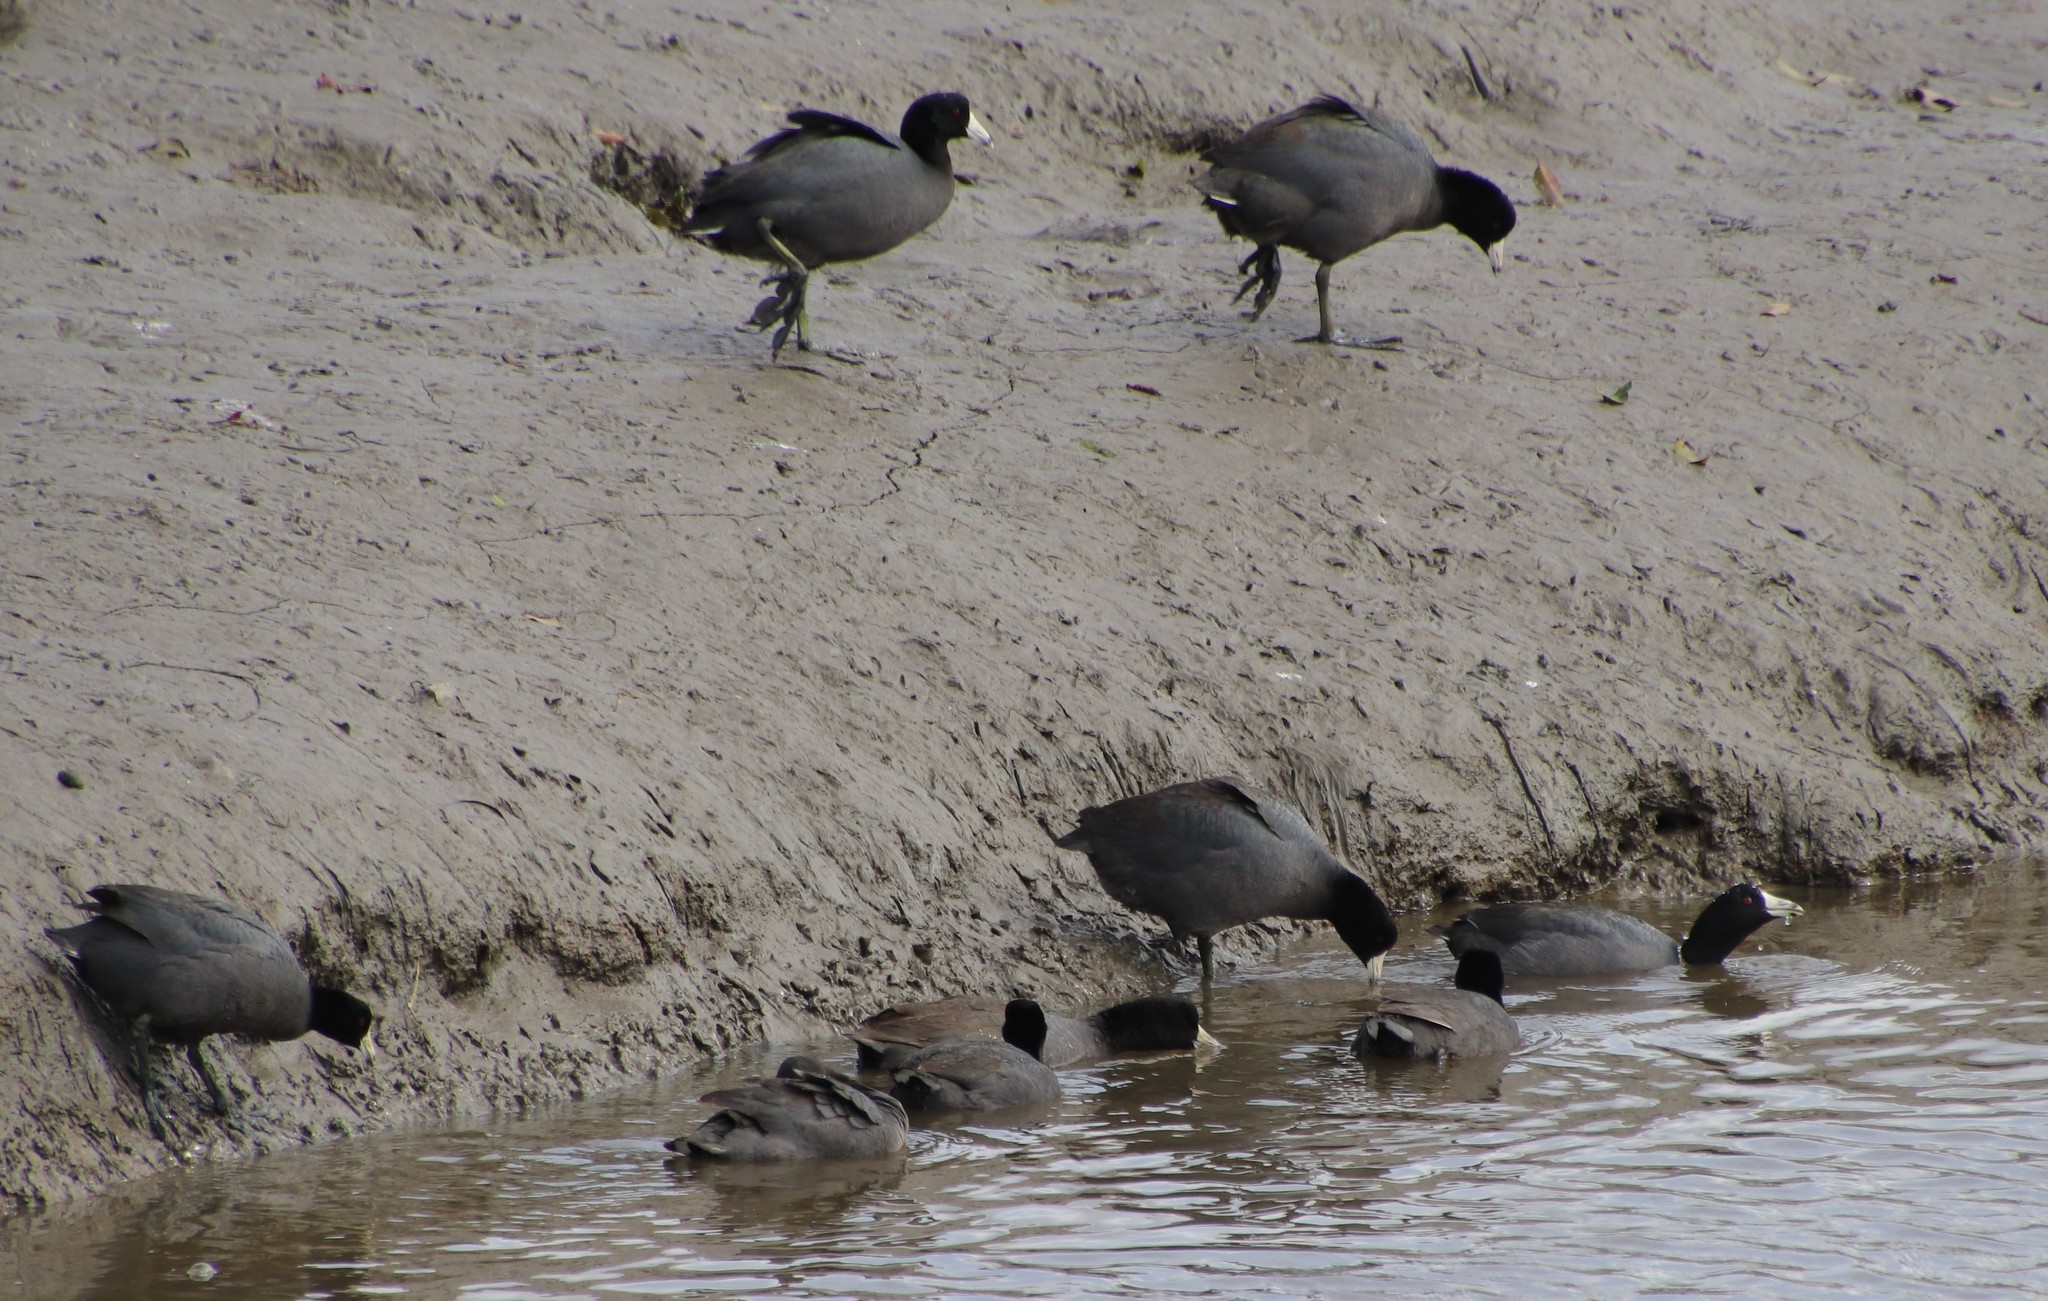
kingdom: Animalia
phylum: Chordata
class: Aves
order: Gruiformes
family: Rallidae
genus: Fulica
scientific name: Fulica americana
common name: American coot
